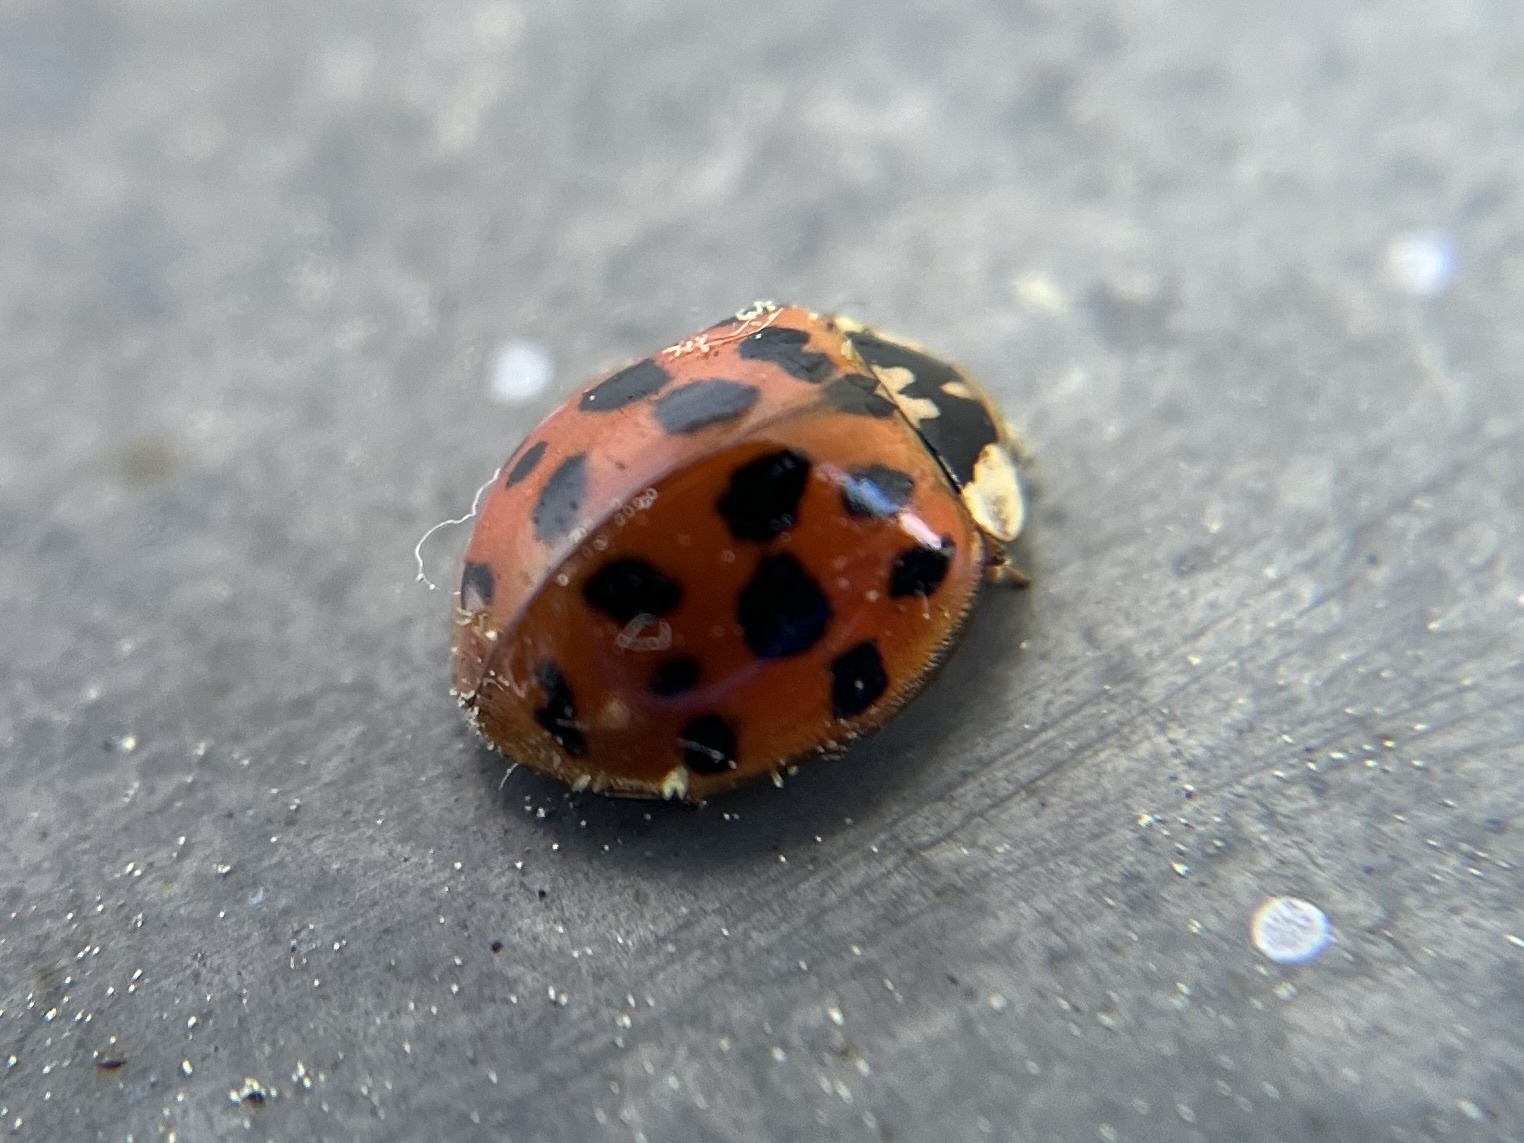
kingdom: Fungi
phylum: Ascomycota
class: Laboulbeniomycetes
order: Laboulbeniales
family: Laboulbeniaceae
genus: Hesperomyces
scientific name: Hesperomyces harmoniae
